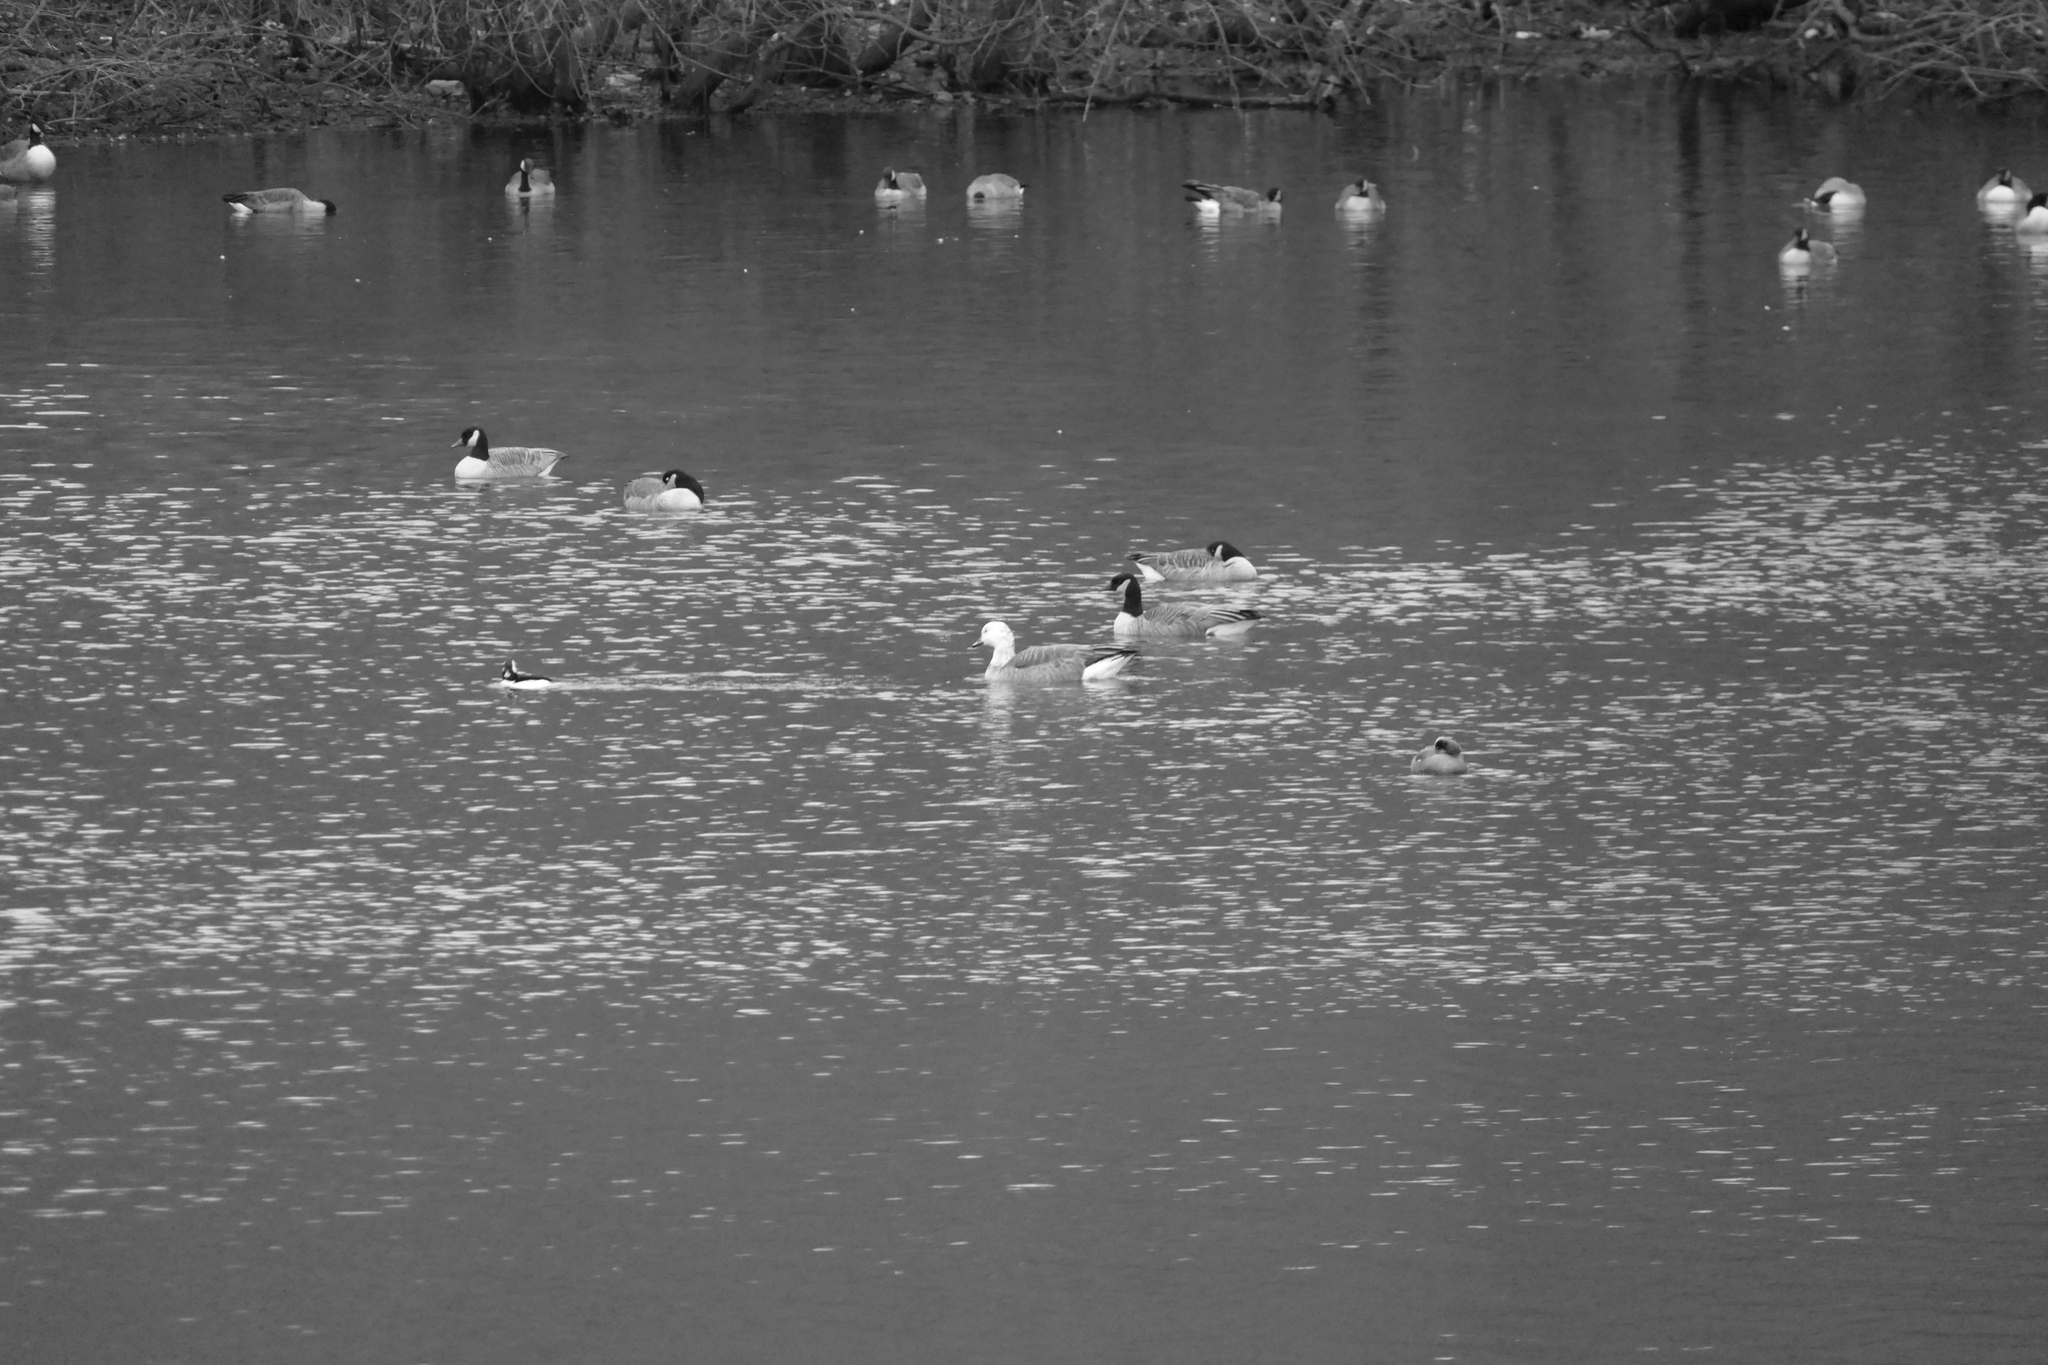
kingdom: Animalia
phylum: Chordata
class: Aves
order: Anseriformes
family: Anatidae
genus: Bucephala
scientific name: Bucephala albeola
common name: Bufflehead
